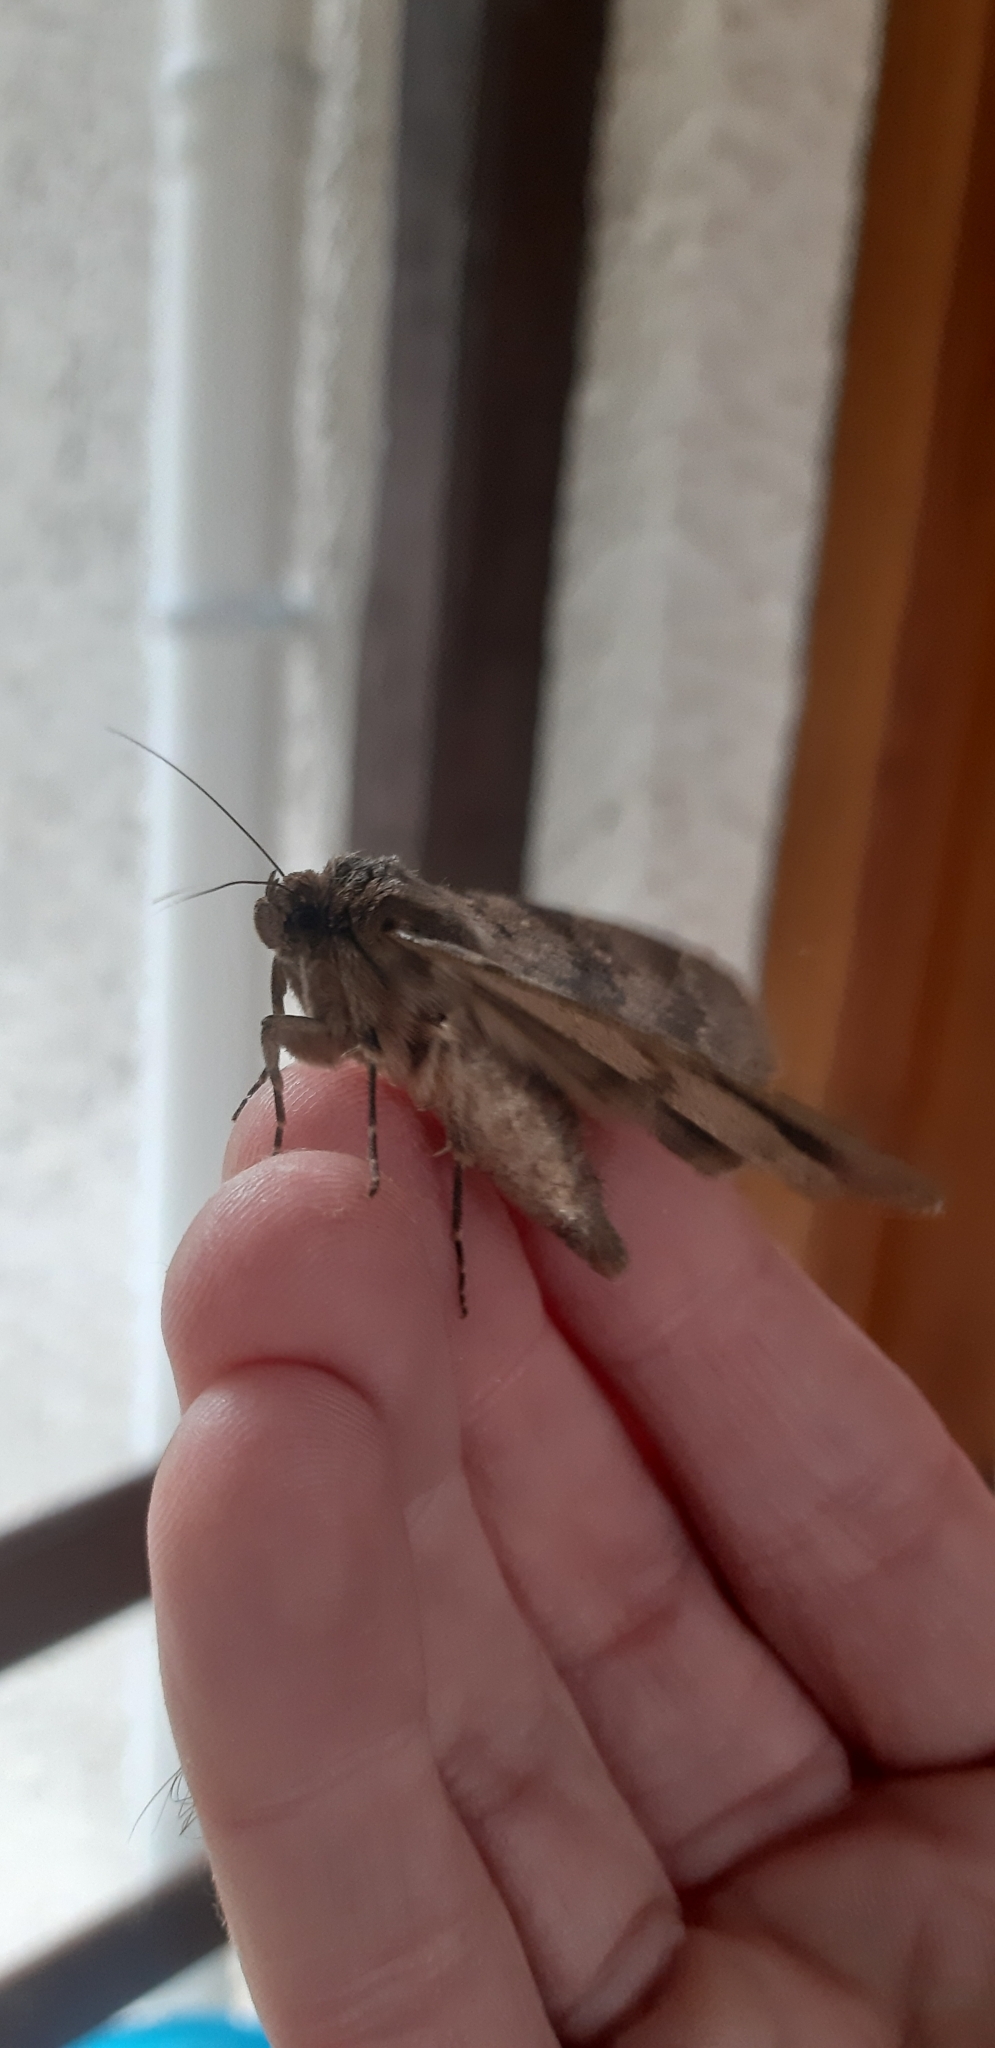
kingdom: Animalia
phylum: Arthropoda
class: Insecta
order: Lepidoptera
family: Erebidae
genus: Apopestes
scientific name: Apopestes spectrum
